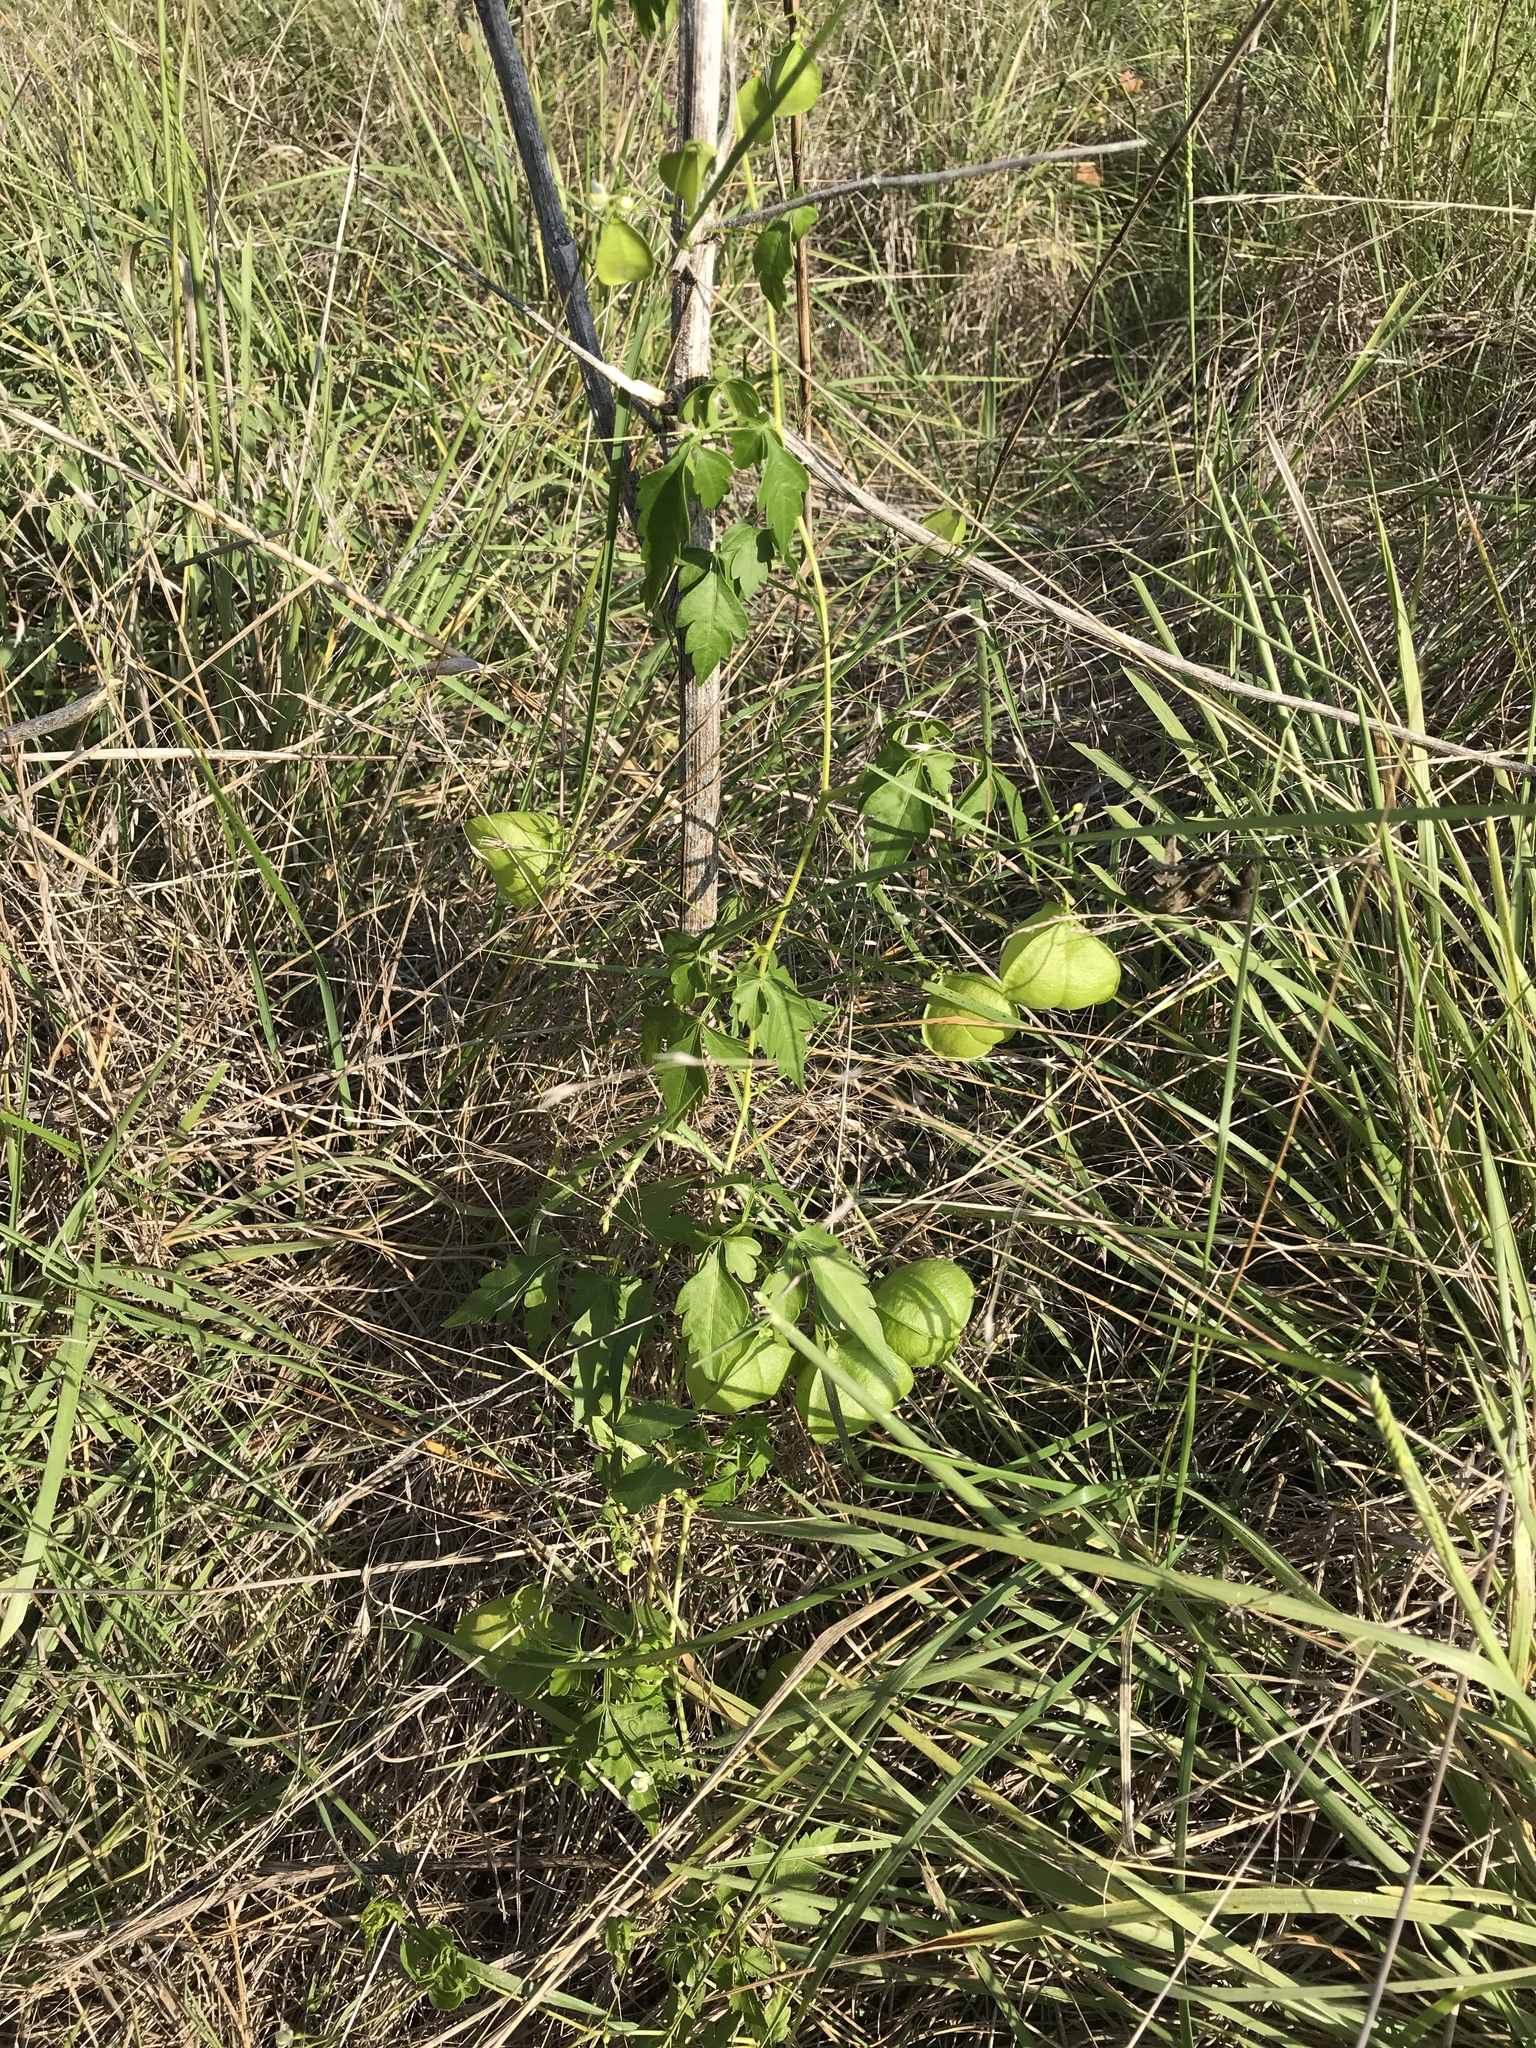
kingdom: Plantae
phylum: Tracheophyta
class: Magnoliopsida
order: Sapindales
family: Sapindaceae
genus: Cardiospermum
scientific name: Cardiospermum halicacabum
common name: Balloon vine
